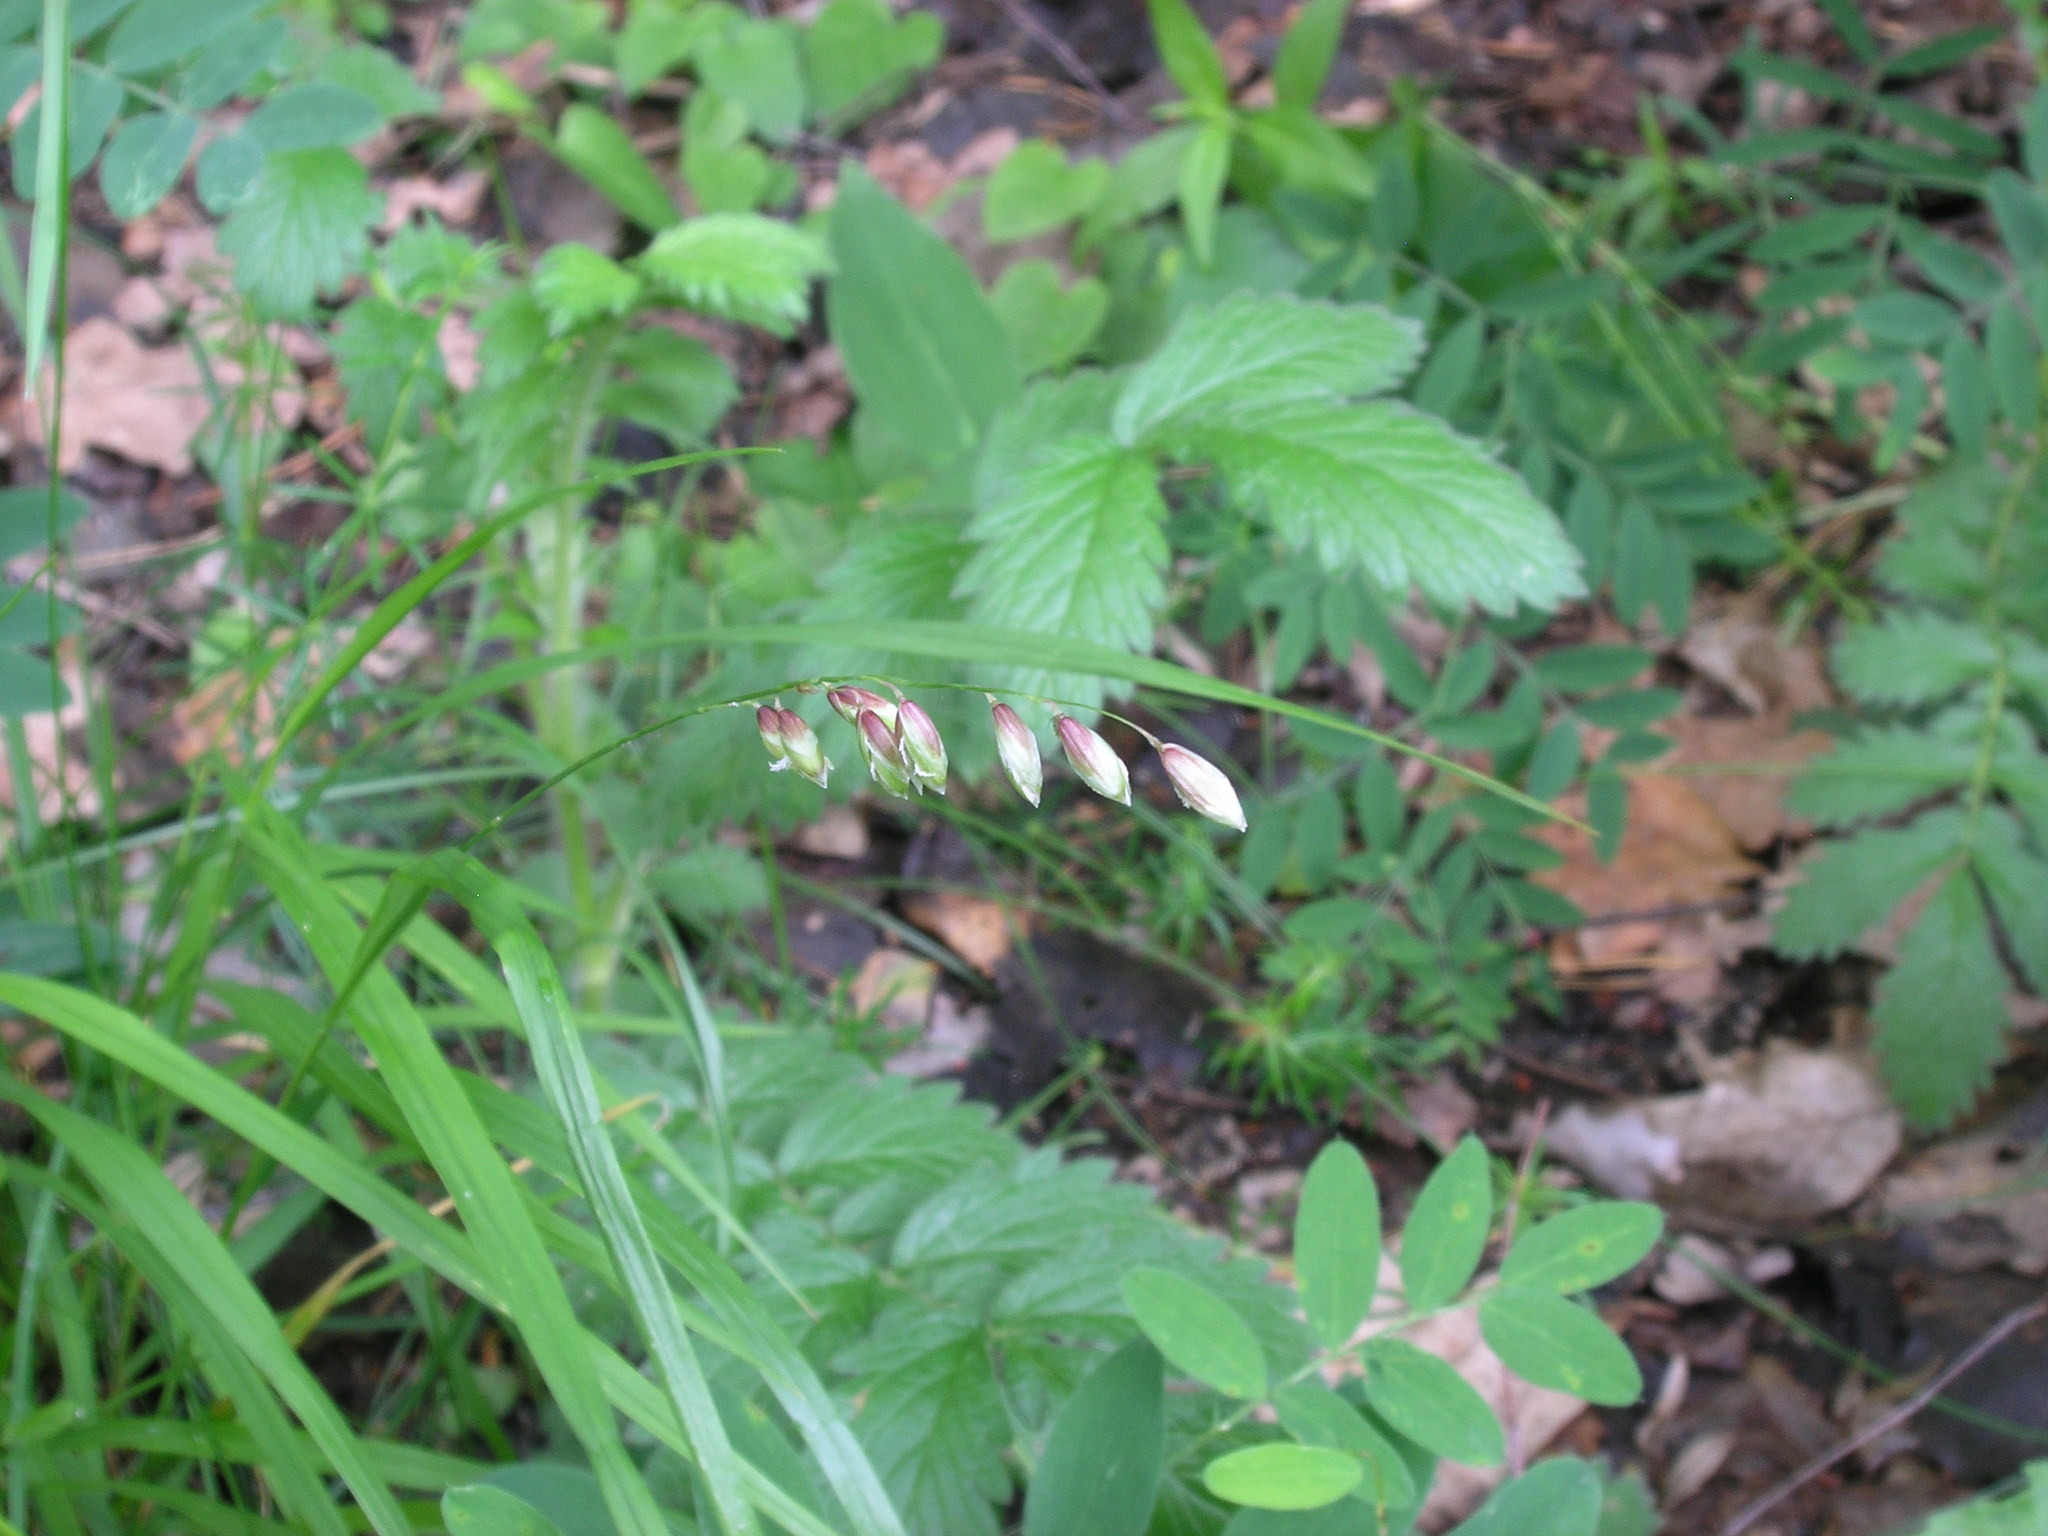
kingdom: Plantae
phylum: Tracheophyta
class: Liliopsida
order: Poales
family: Poaceae
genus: Melica
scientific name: Melica nutans
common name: Mountain melick
